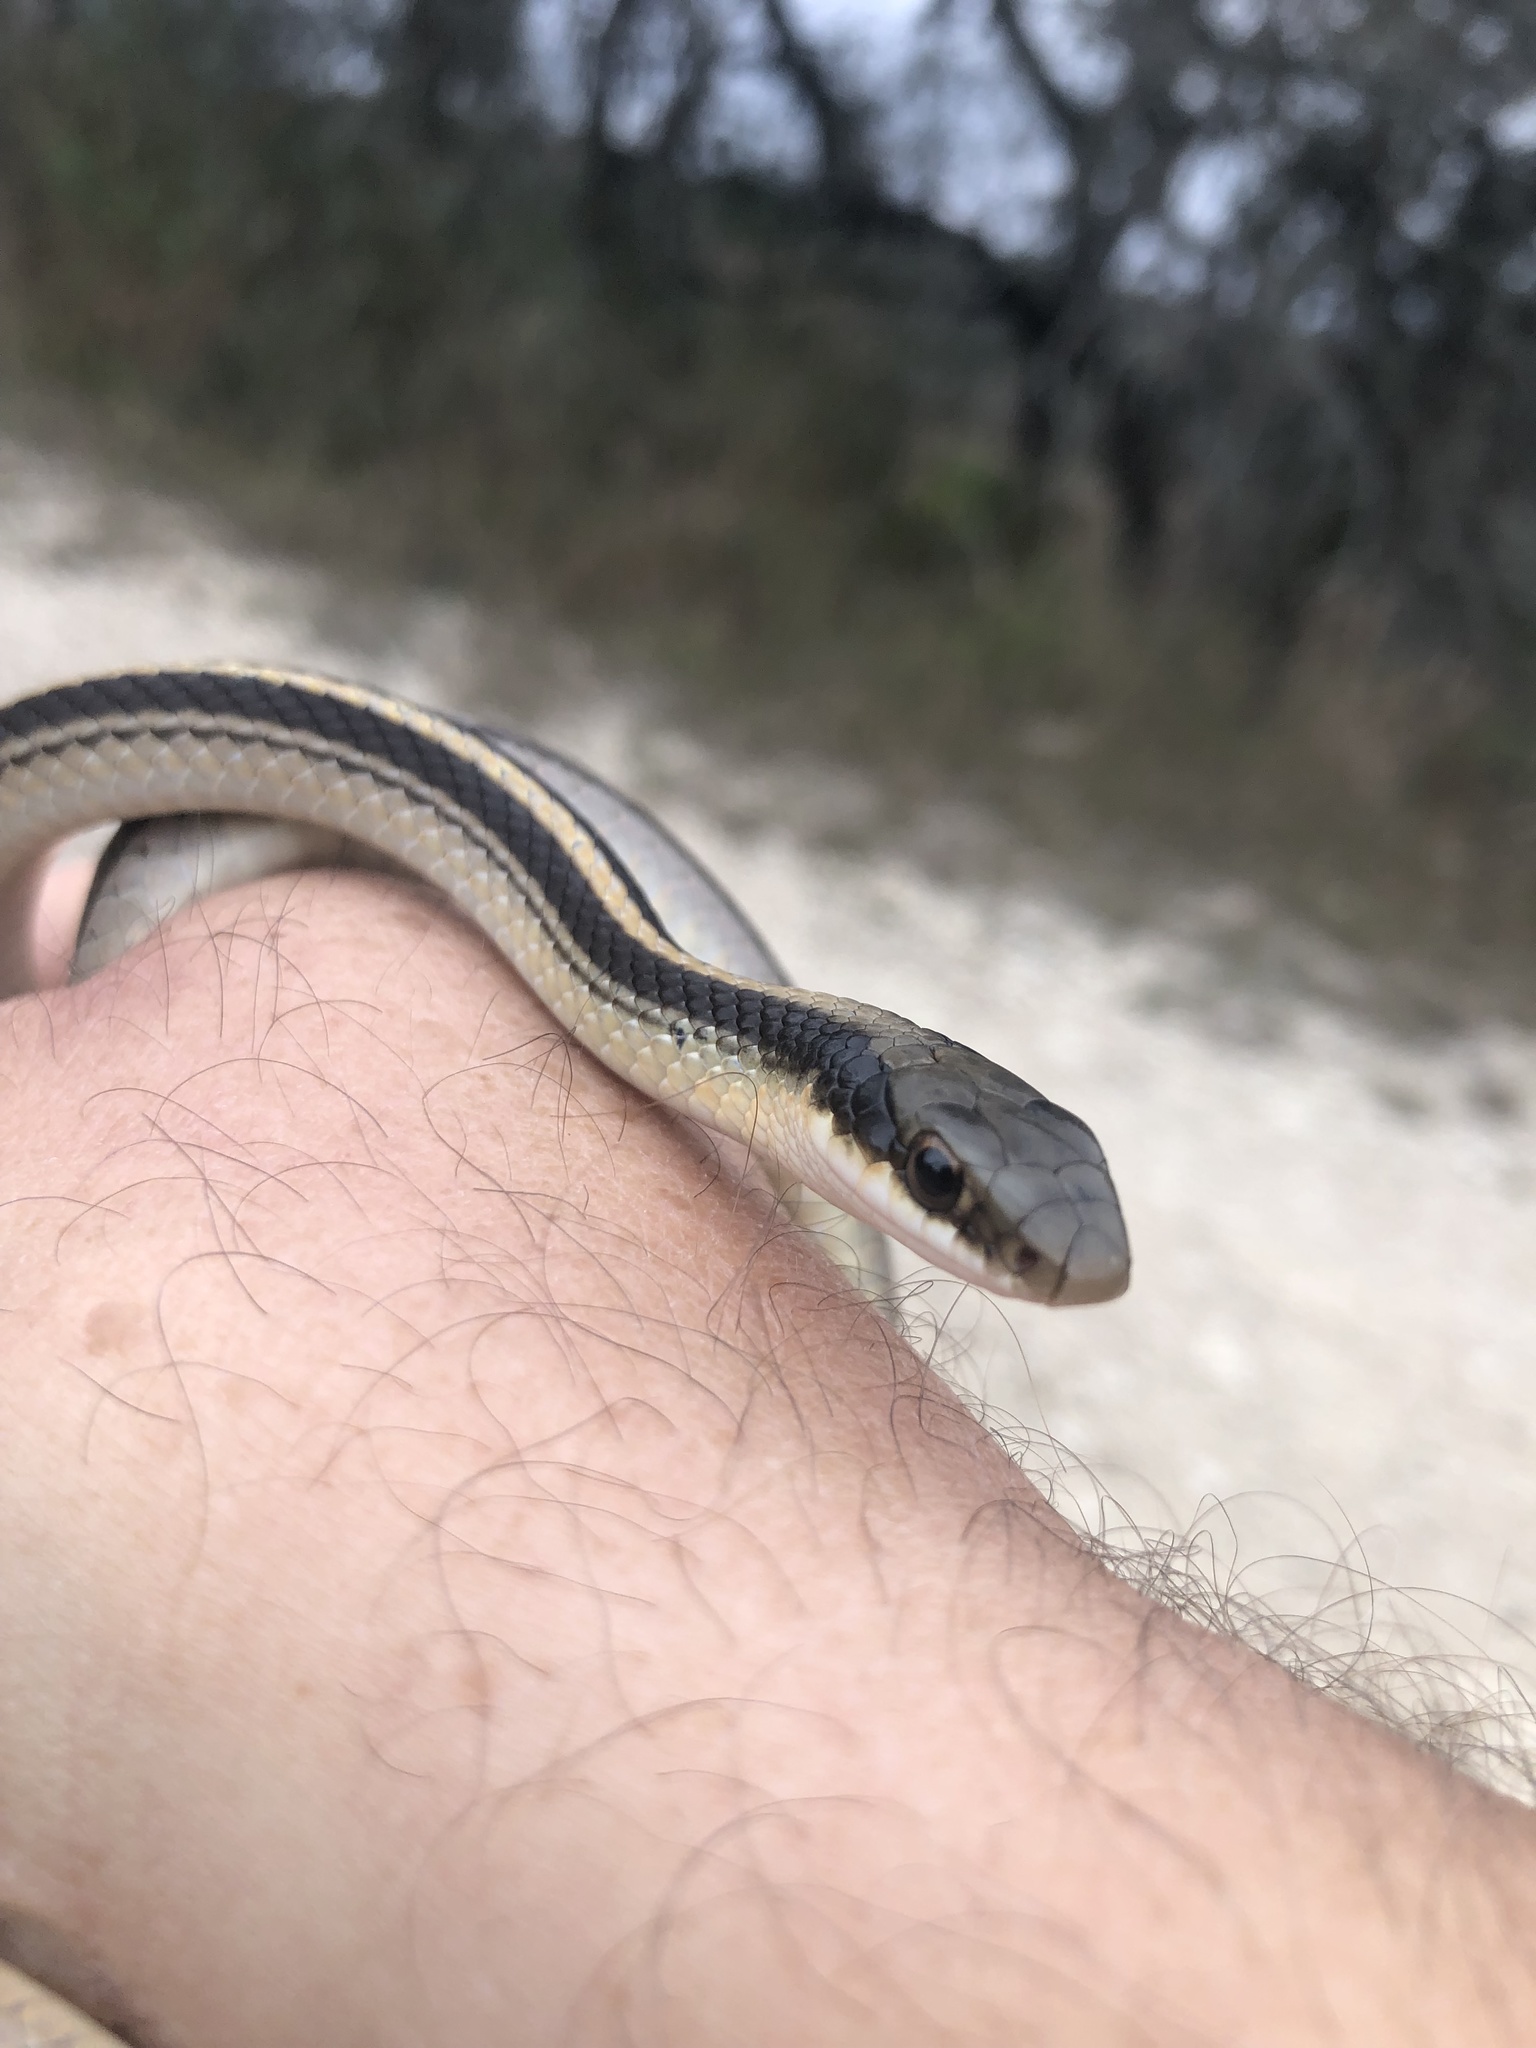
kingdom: Animalia
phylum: Chordata
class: Squamata
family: Colubridae
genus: Salvadora
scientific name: Salvadora lineata
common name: Texas patchnose snake
